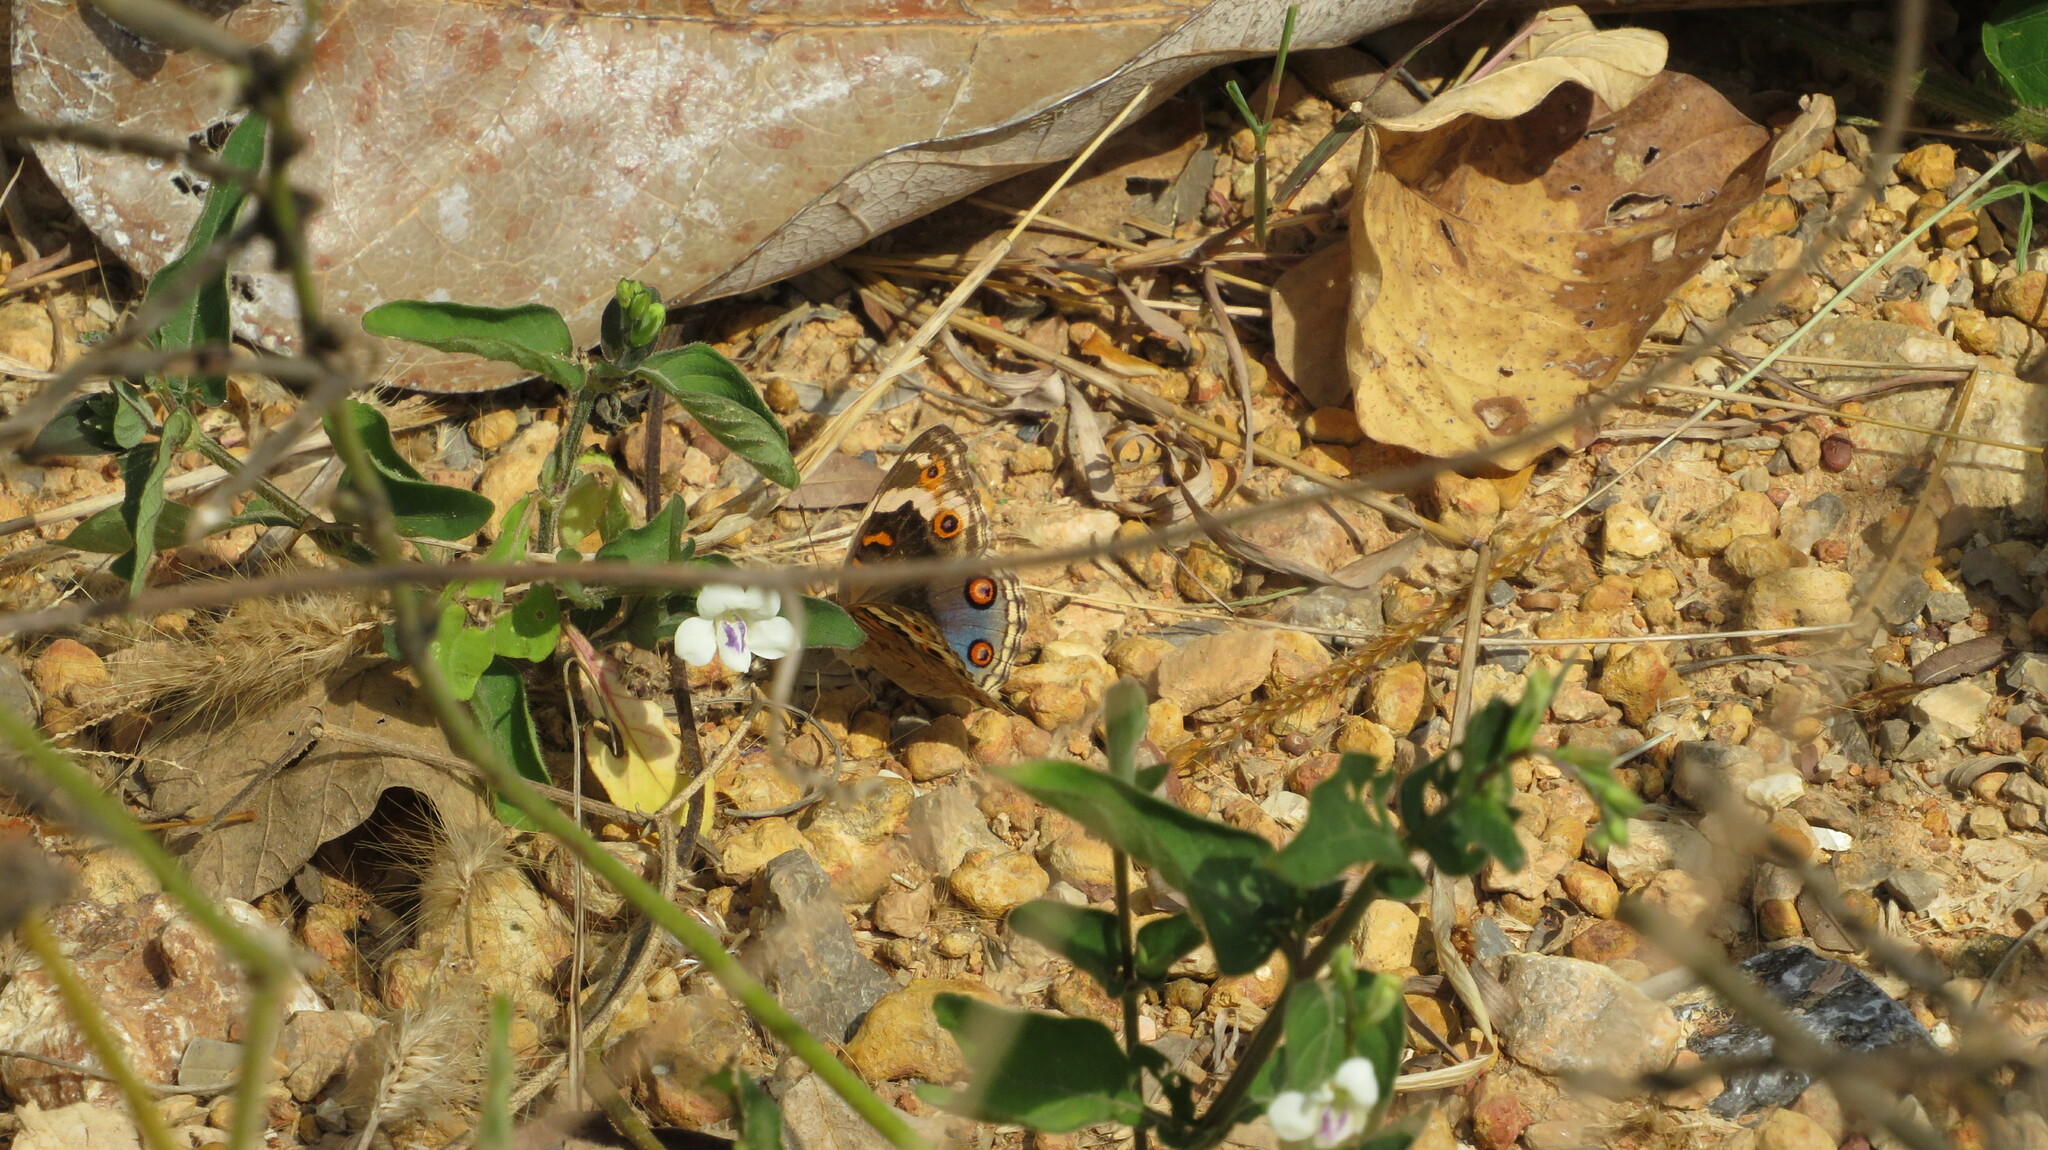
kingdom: Animalia
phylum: Arthropoda
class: Insecta
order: Lepidoptera
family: Nymphalidae
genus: Junonia
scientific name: Junonia orithya
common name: Blue pansy
